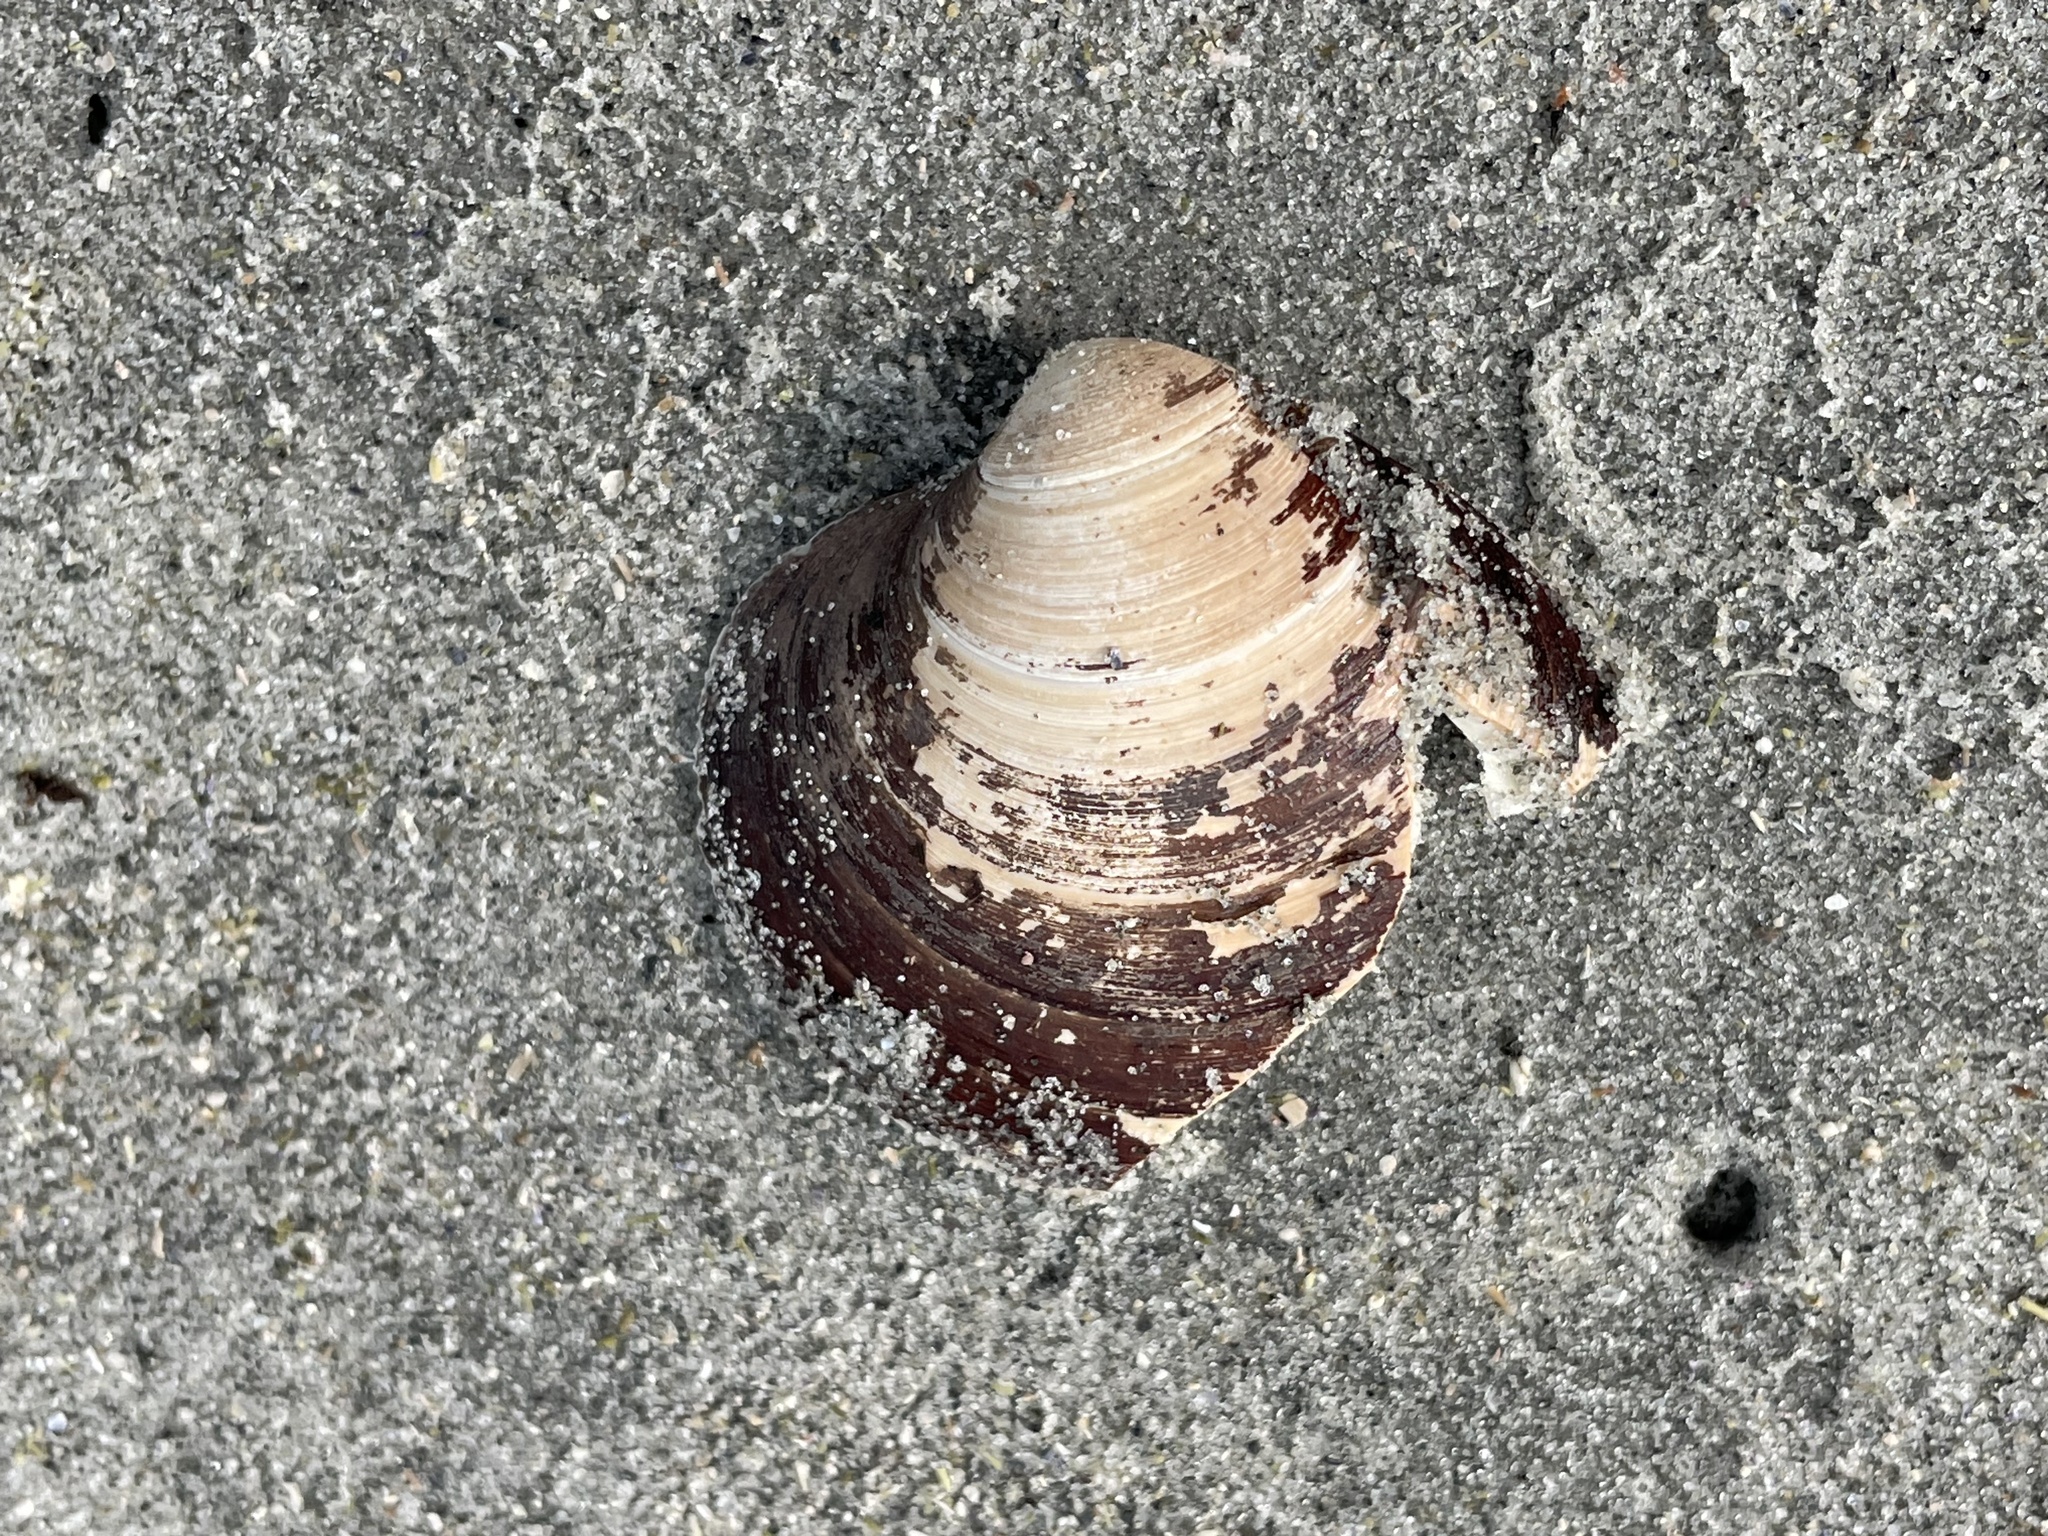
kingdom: Animalia
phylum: Mollusca
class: Bivalvia
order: Venerida
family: Arcticidae
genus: Arctica
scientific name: Arctica islandica
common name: Icelandic cyprine
